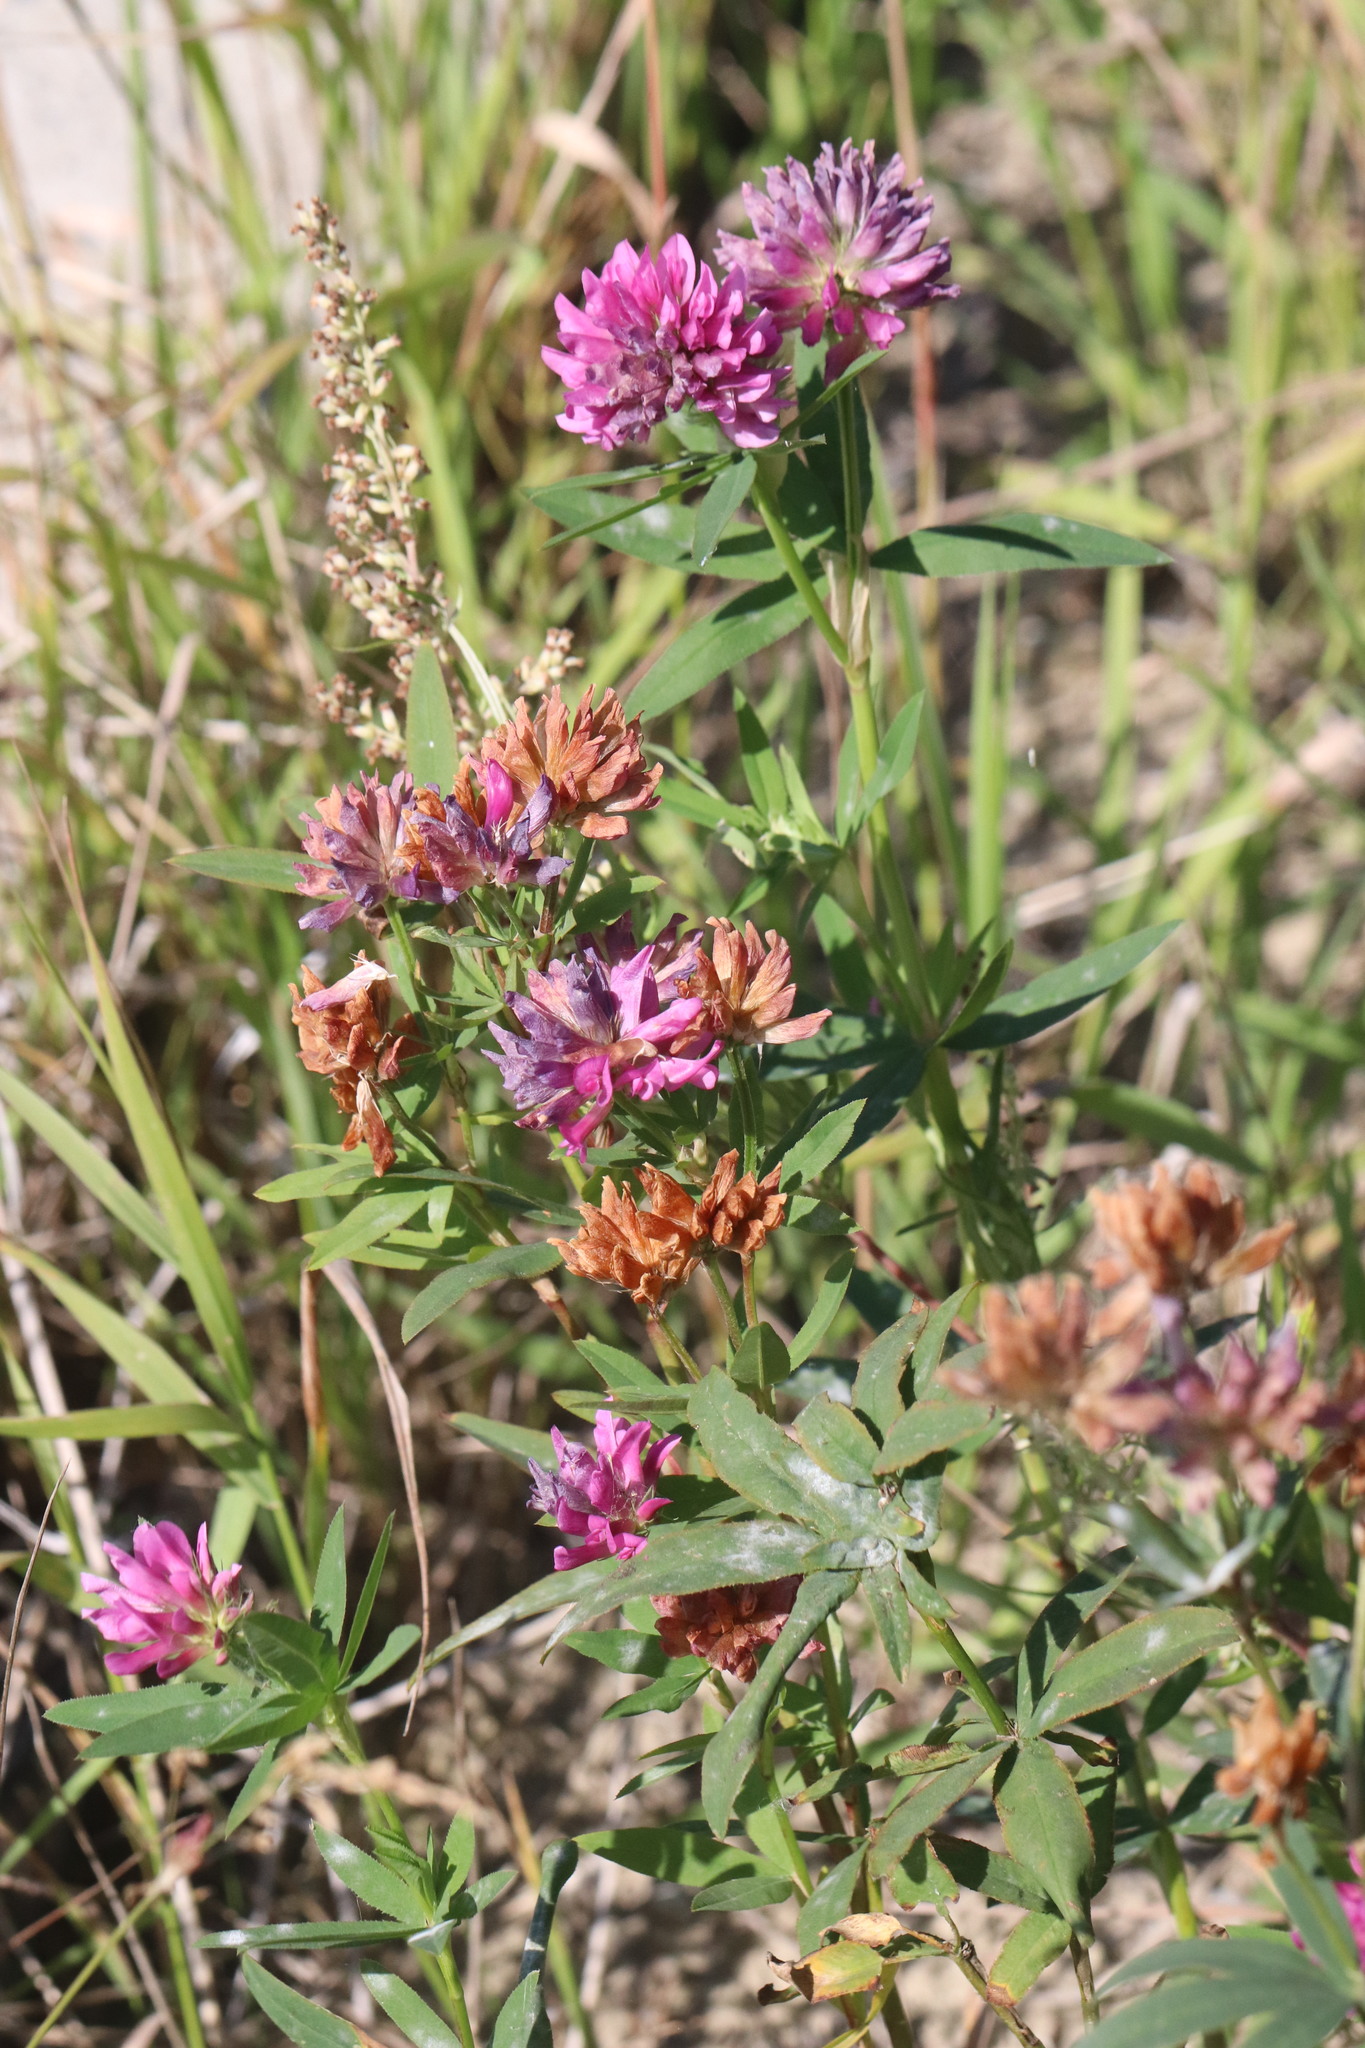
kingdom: Plantae
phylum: Tracheophyta
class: Magnoliopsida
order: Fabales
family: Fabaceae
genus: Trifolium
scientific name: Trifolium lupinaster
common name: Lupine clover
